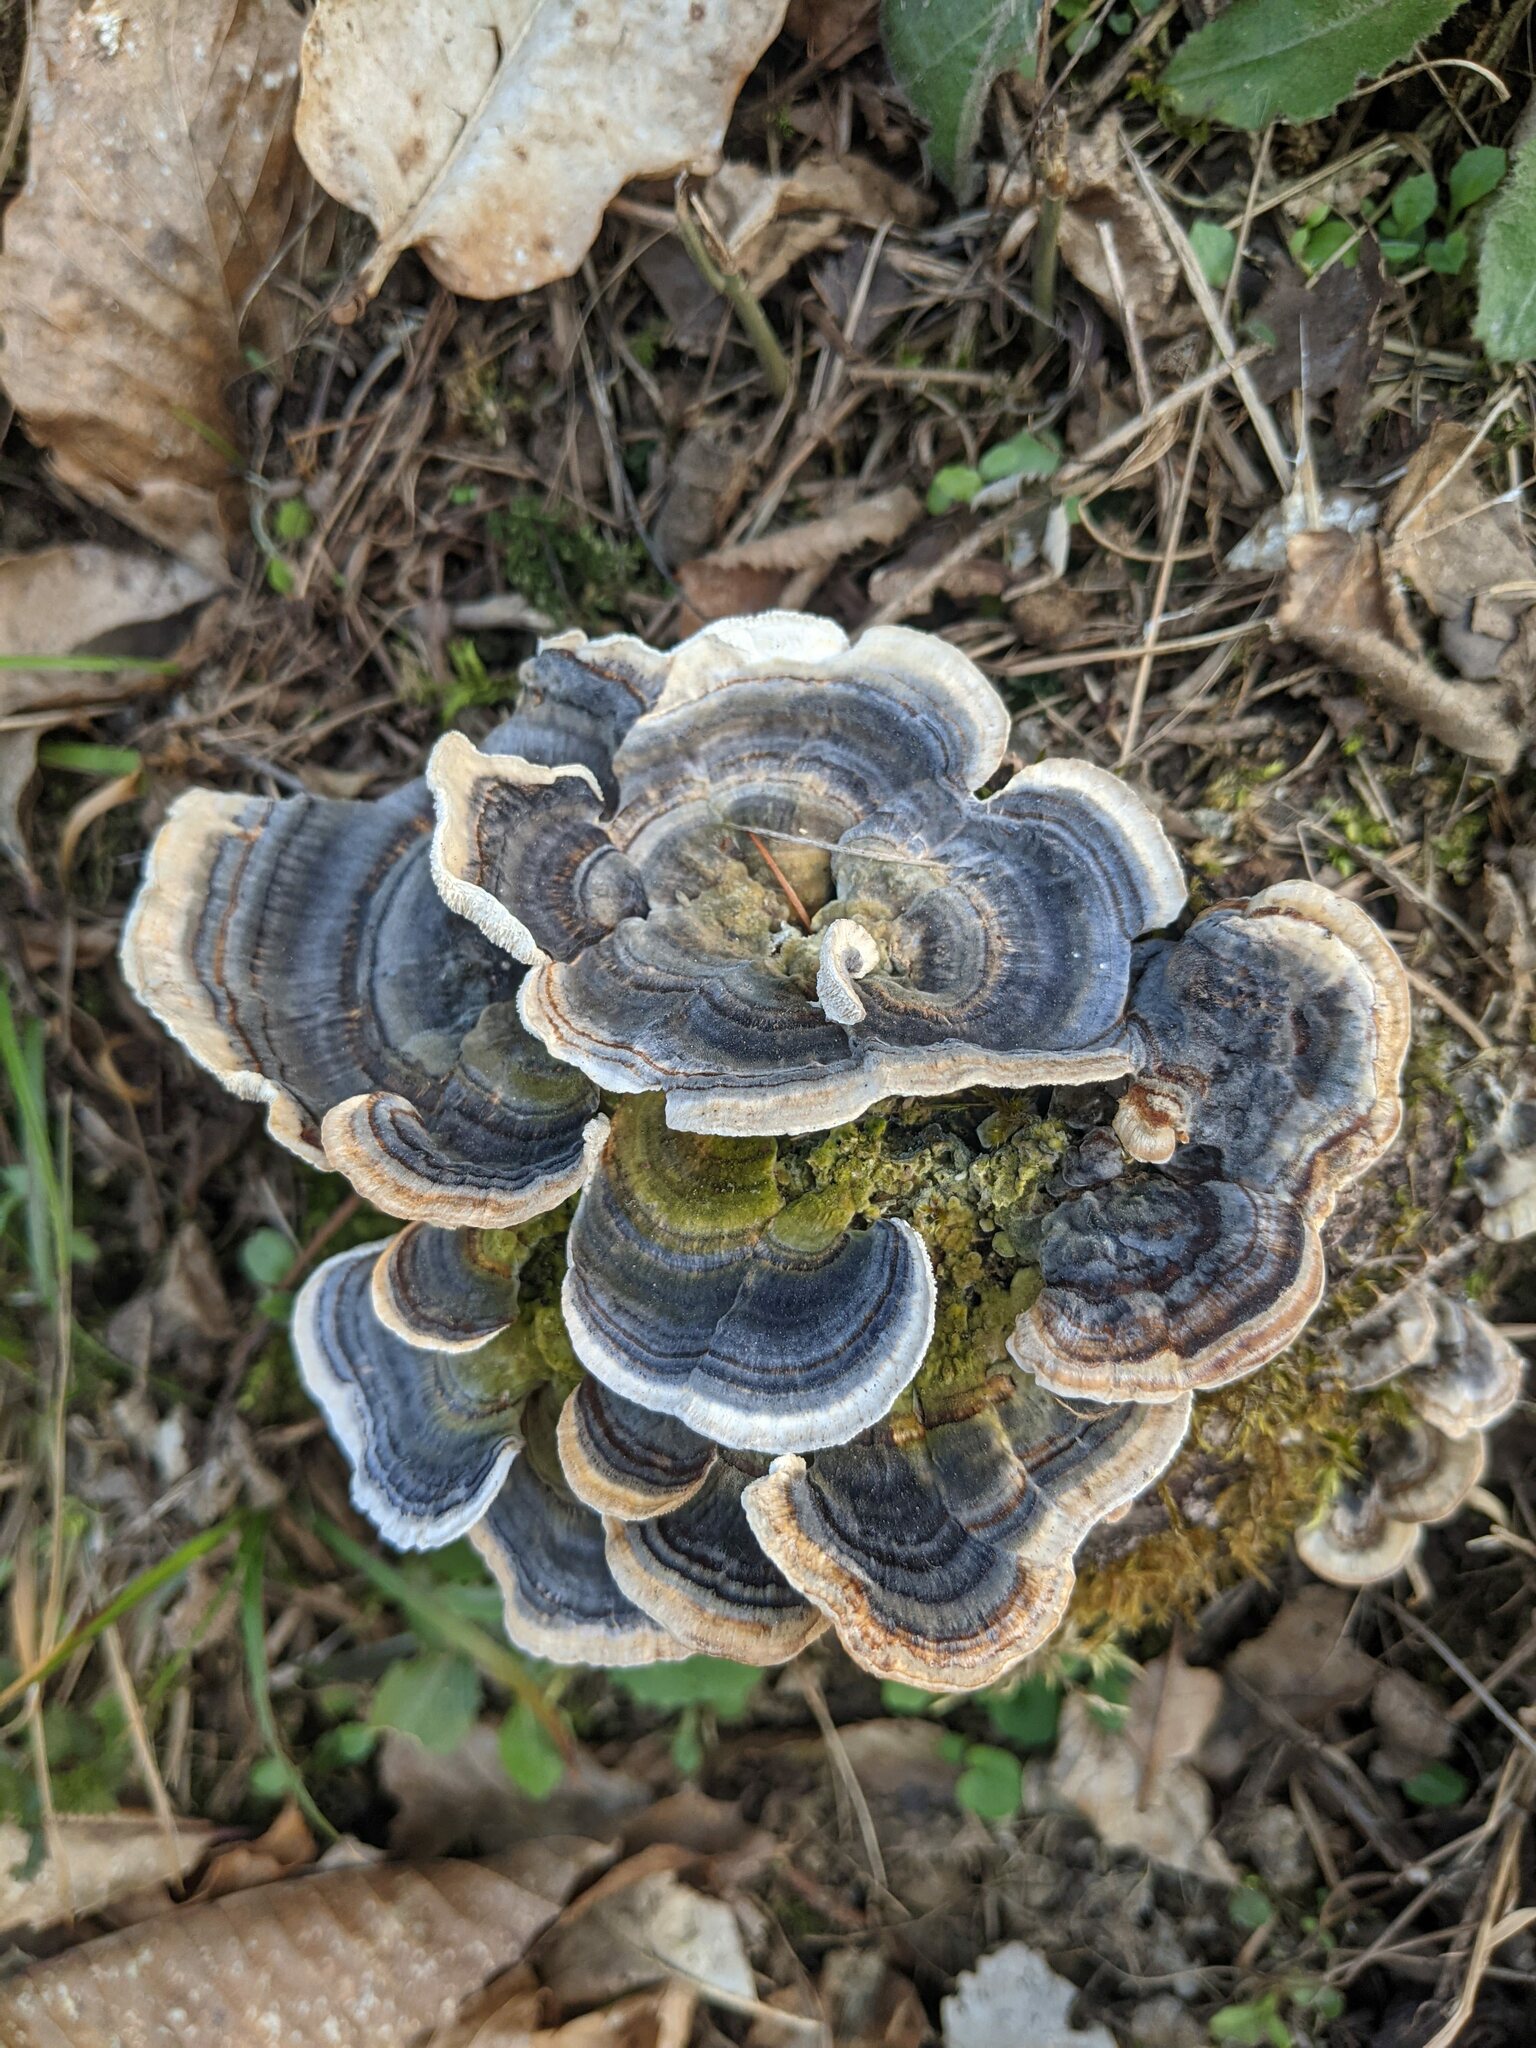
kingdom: Fungi
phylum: Basidiomycota
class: Agaricomycetes
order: Polyporales
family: Polyporaceae
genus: Trametes
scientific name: Trametes versicolor
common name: Turkeytail
